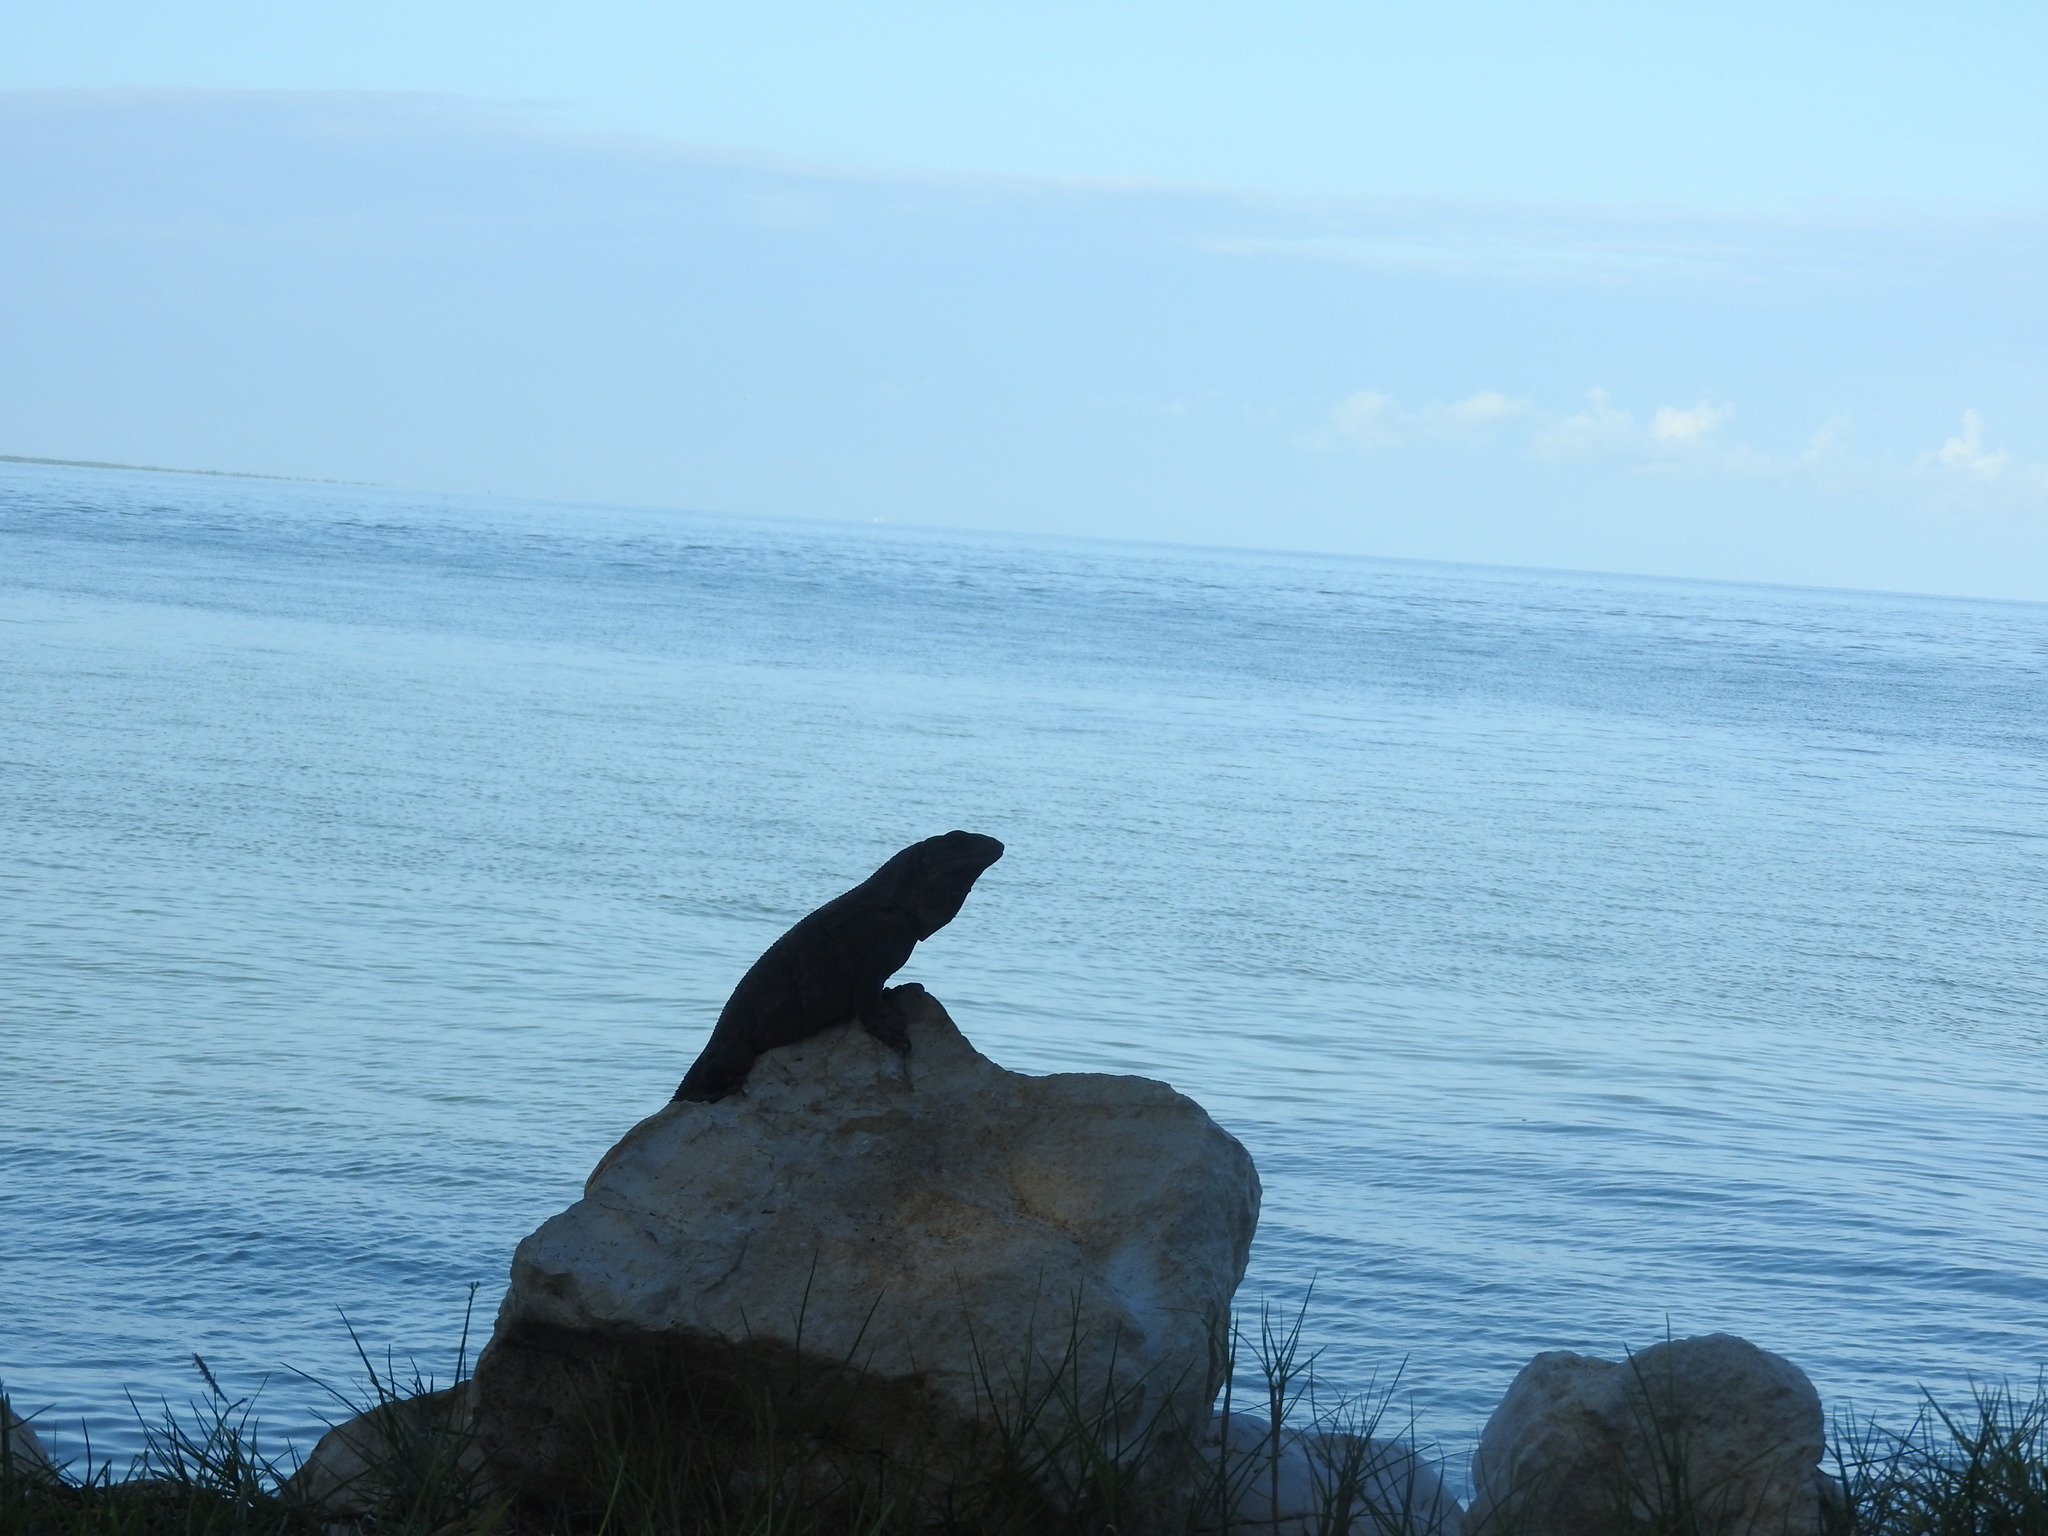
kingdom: Animalia
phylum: Chordata
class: Squamata
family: Iguanidae
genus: Ctenosaura
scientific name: Ctenosaura similis
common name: Black spiny-tailed iguana
